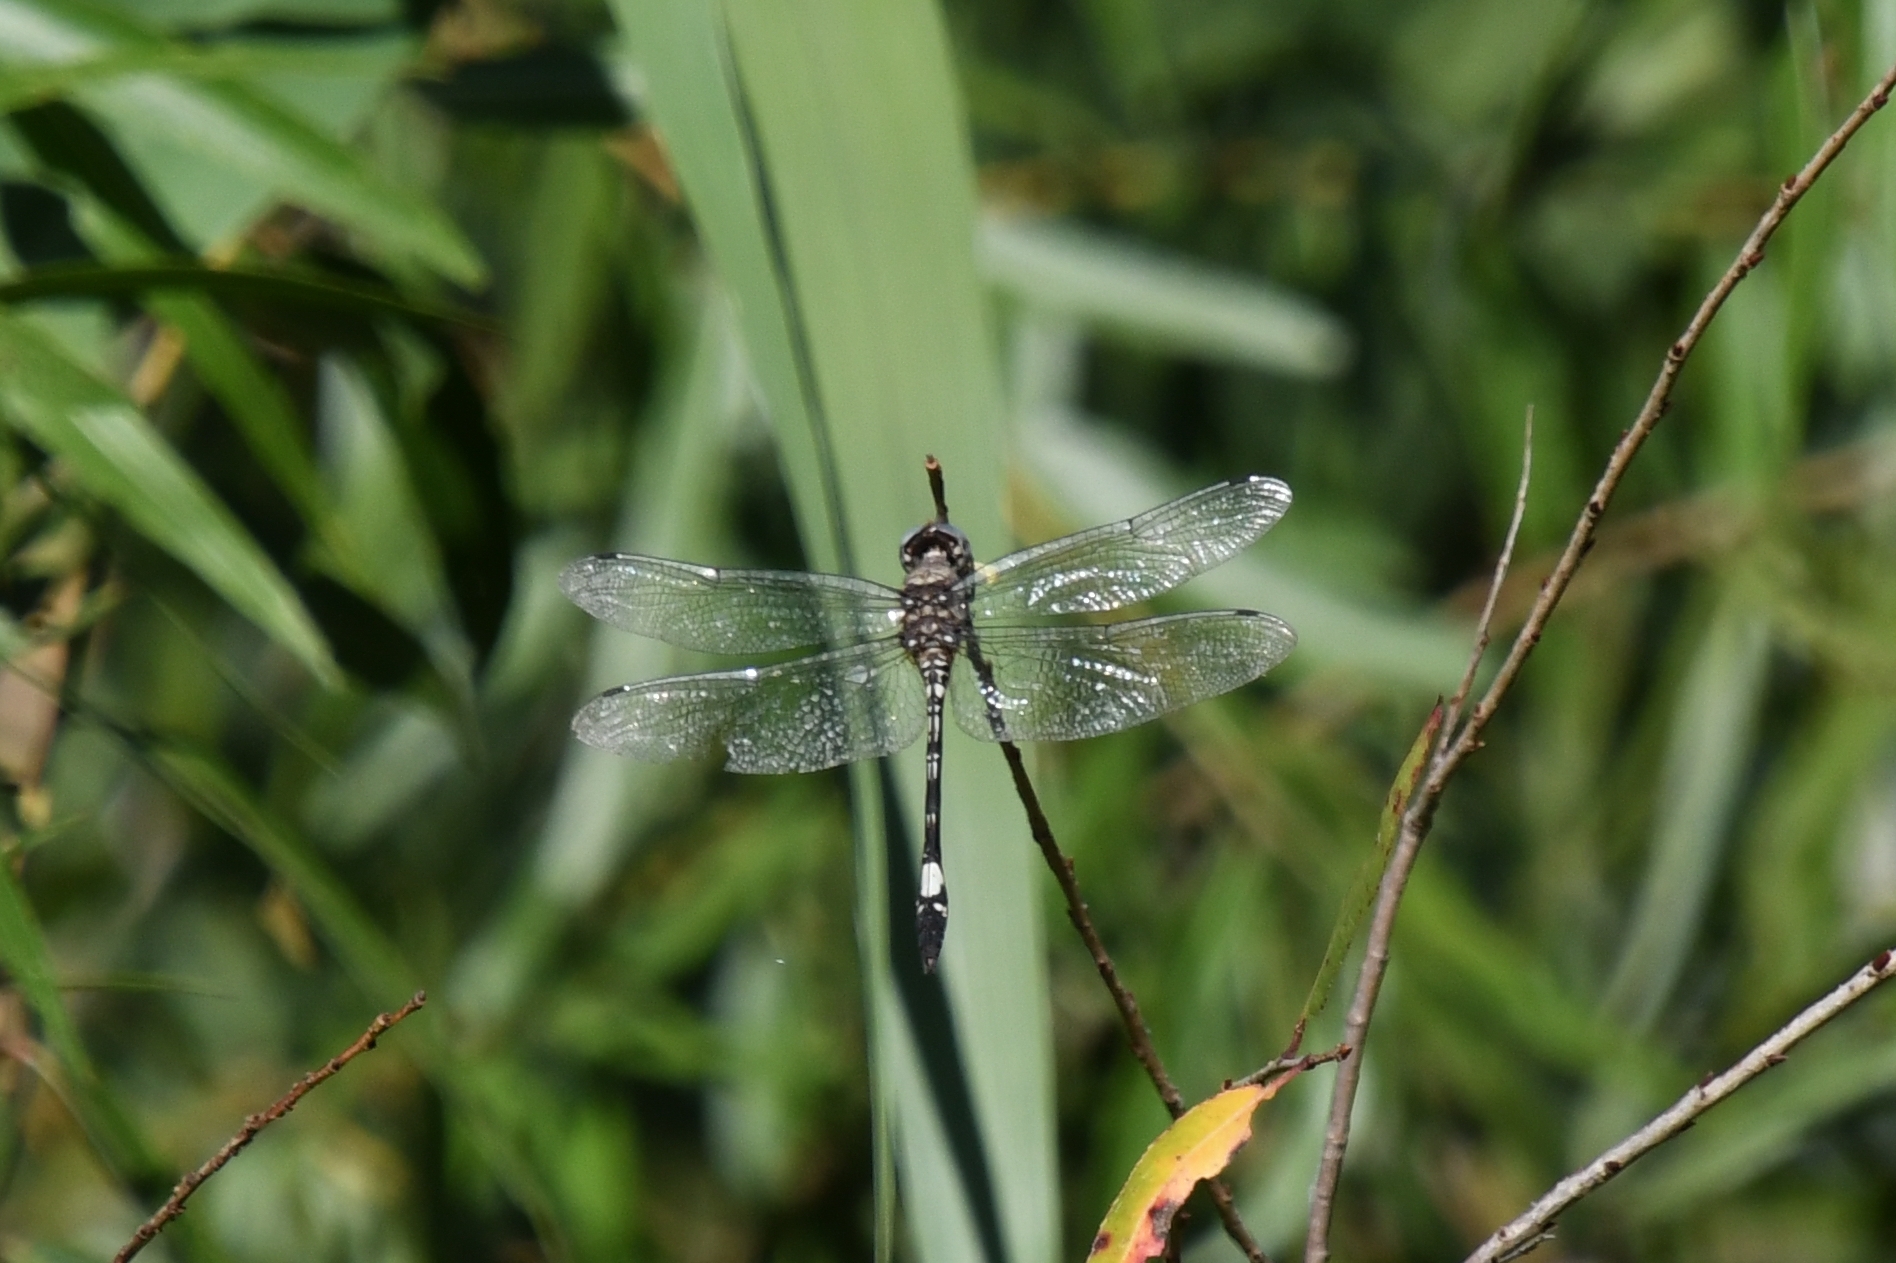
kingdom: Animalia
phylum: Arthropoda
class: Insecta
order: Odonata
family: Libellulidae
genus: Brechmorhoga
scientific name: Brechmorhoga mendax
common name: Pale-faced clubskimmer
